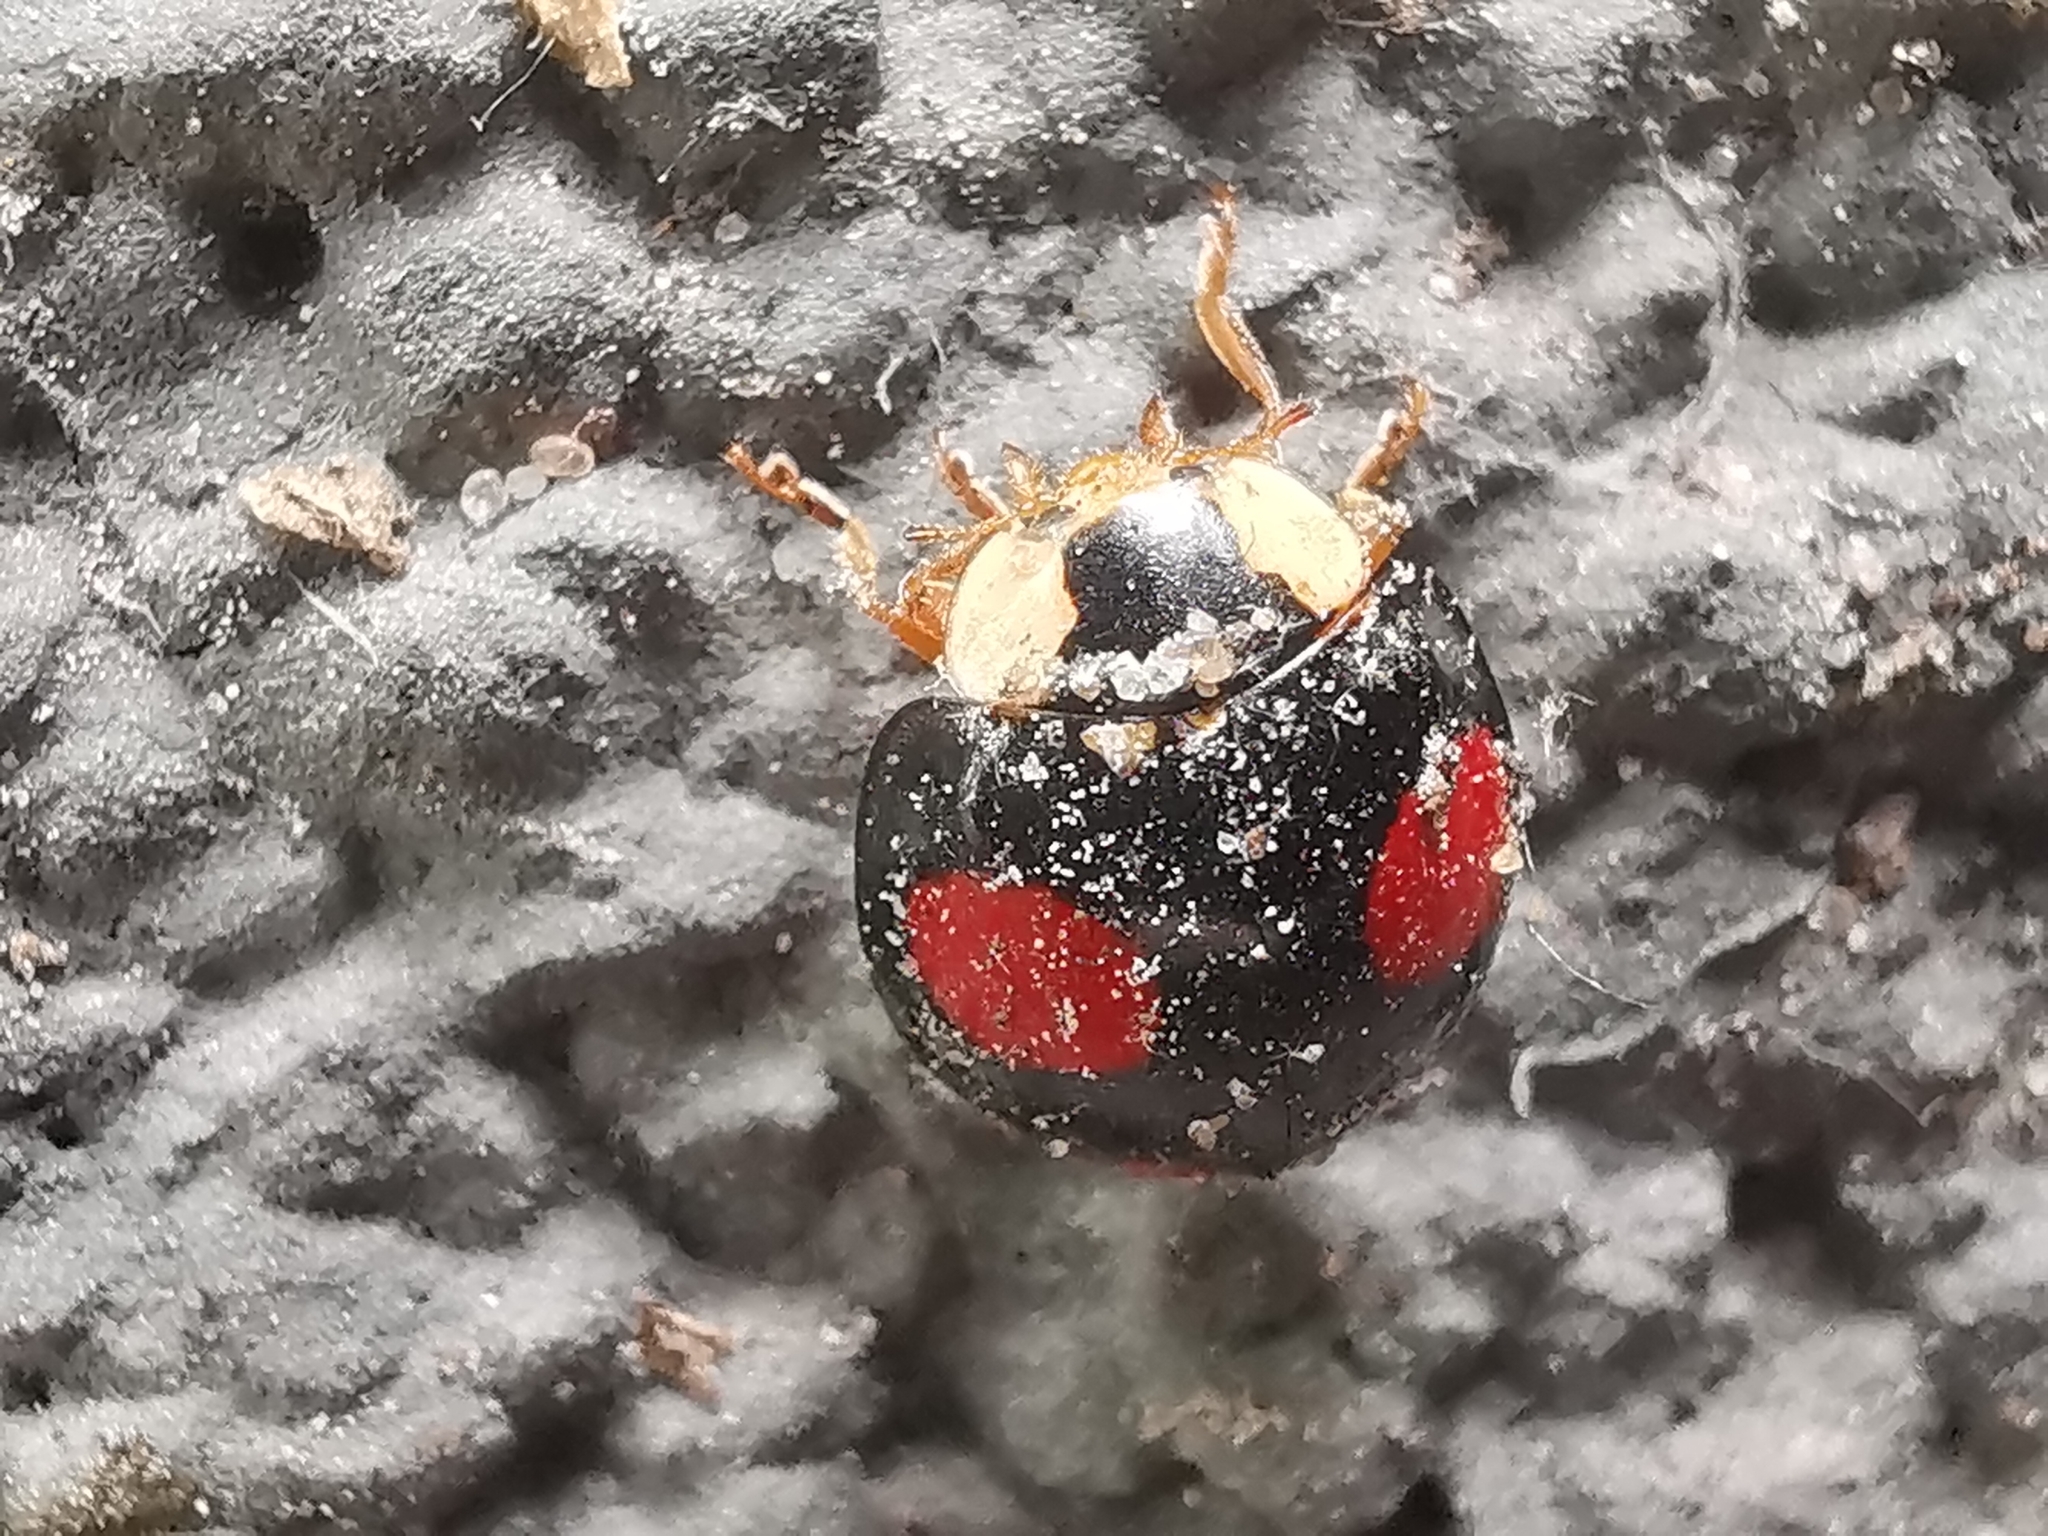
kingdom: Animalia
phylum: Arthropoda
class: Insecta
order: Coleoptera
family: Coccinellidae
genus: Harmonia
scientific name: Harmonia axyridis
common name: Harlequin ladybird
